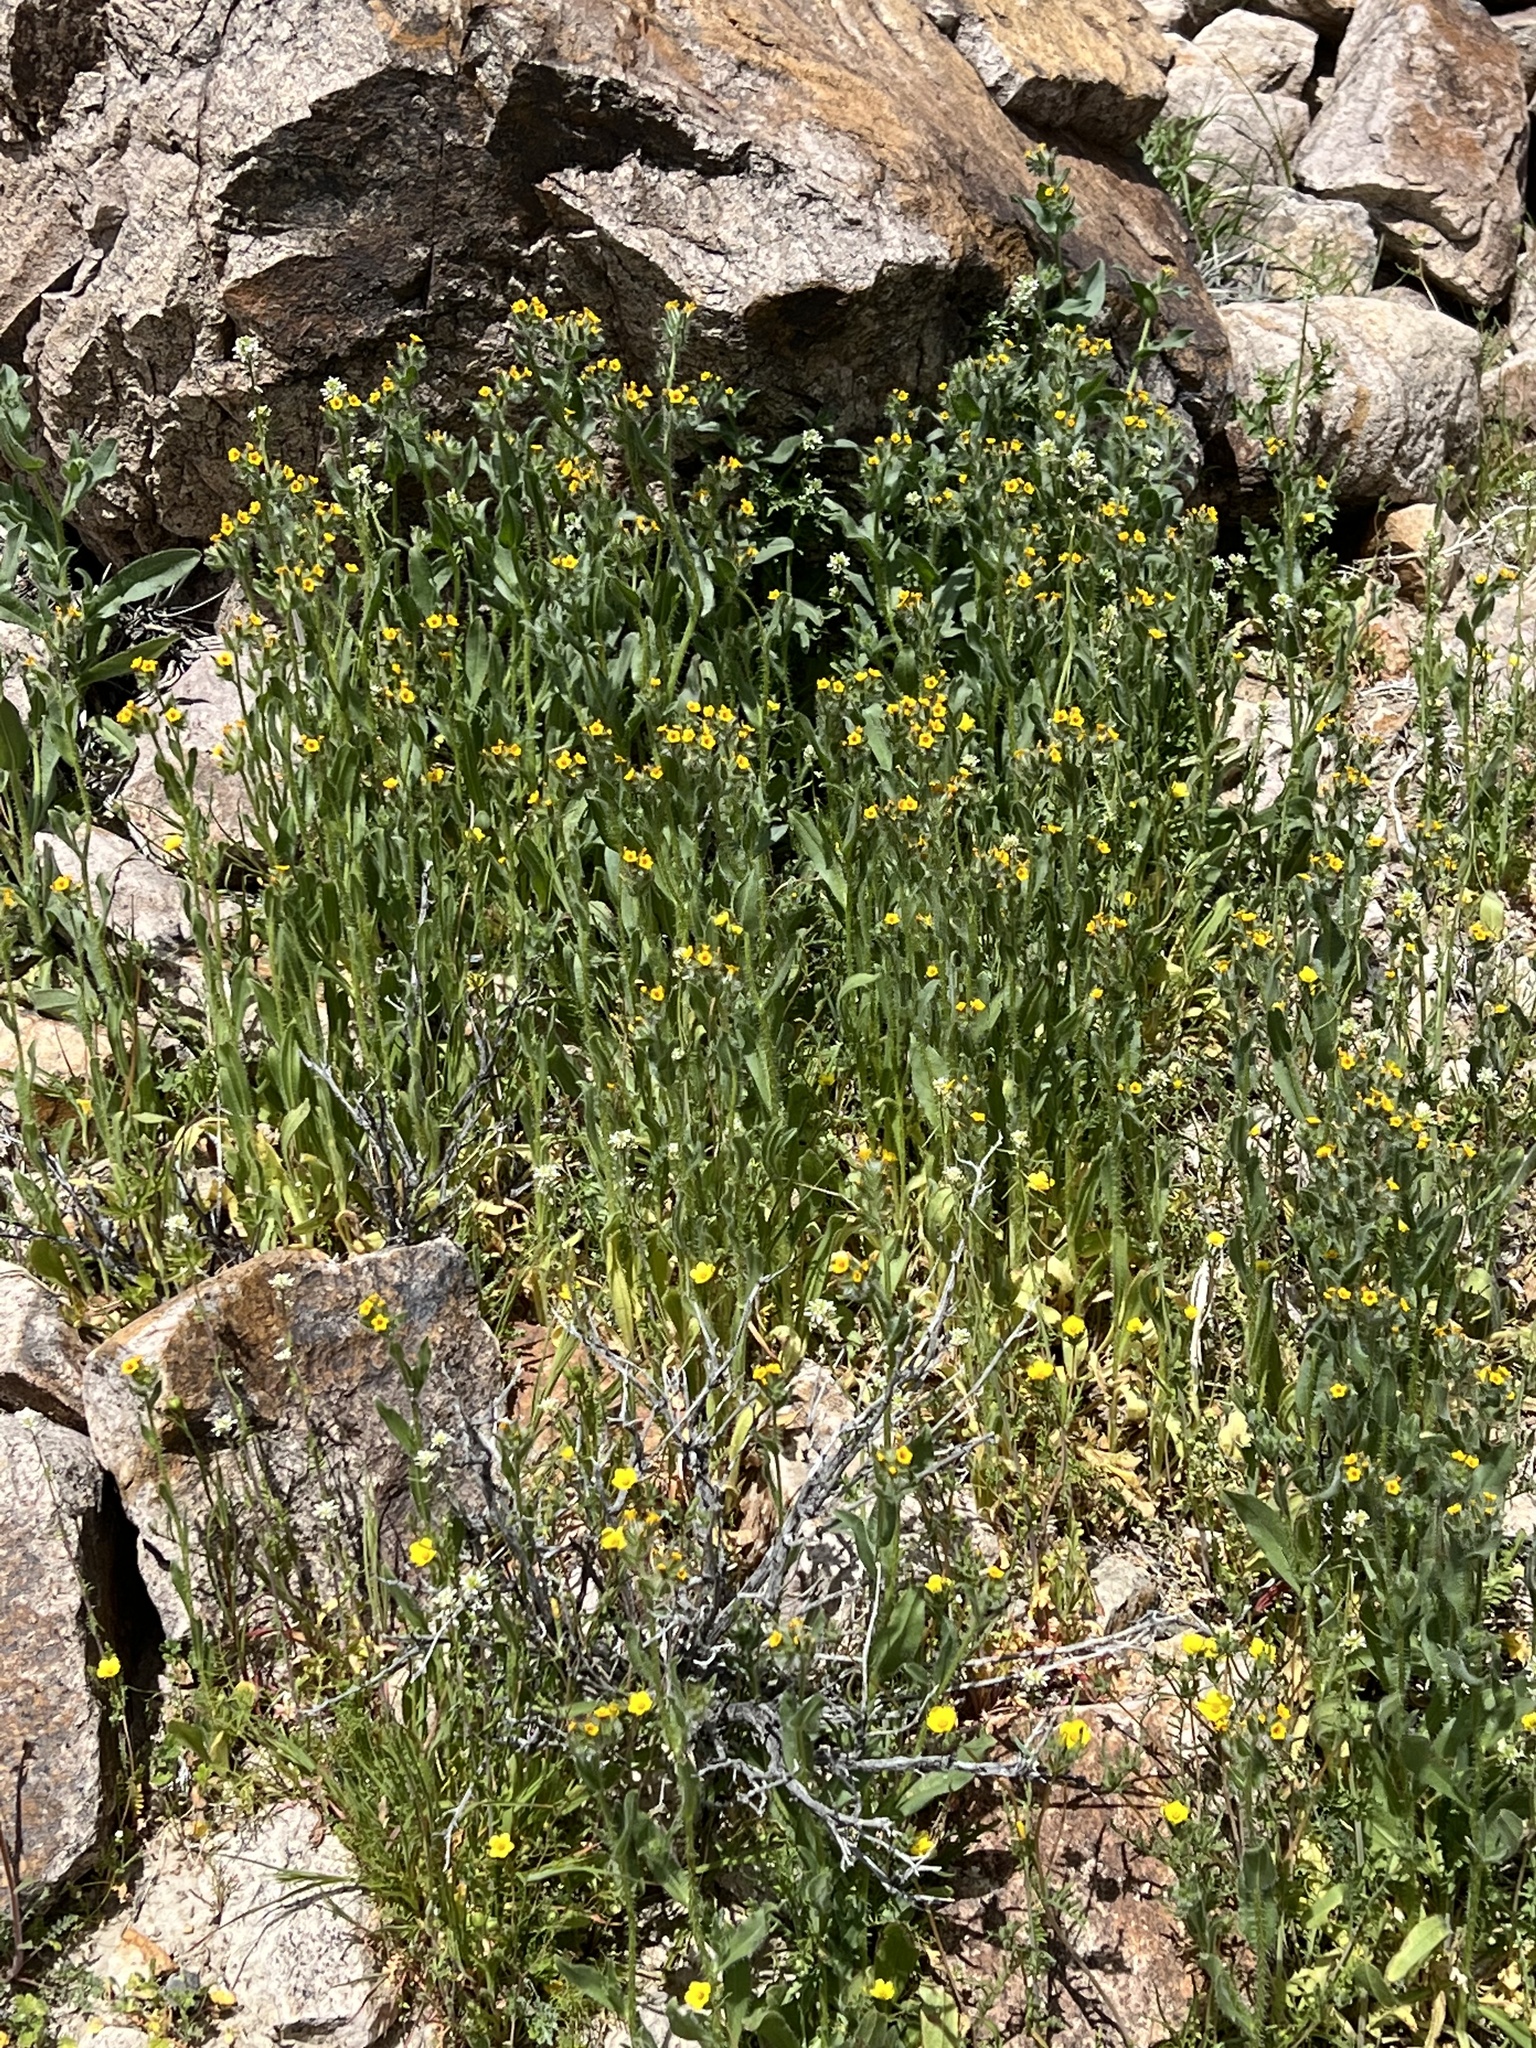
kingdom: Plantae
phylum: Tracheophyta
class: Magnoliopsida
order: Boraginales
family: Boraginaceae
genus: Amsinckia
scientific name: Amsinckia tessellata
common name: Tessellate fiddleneck
